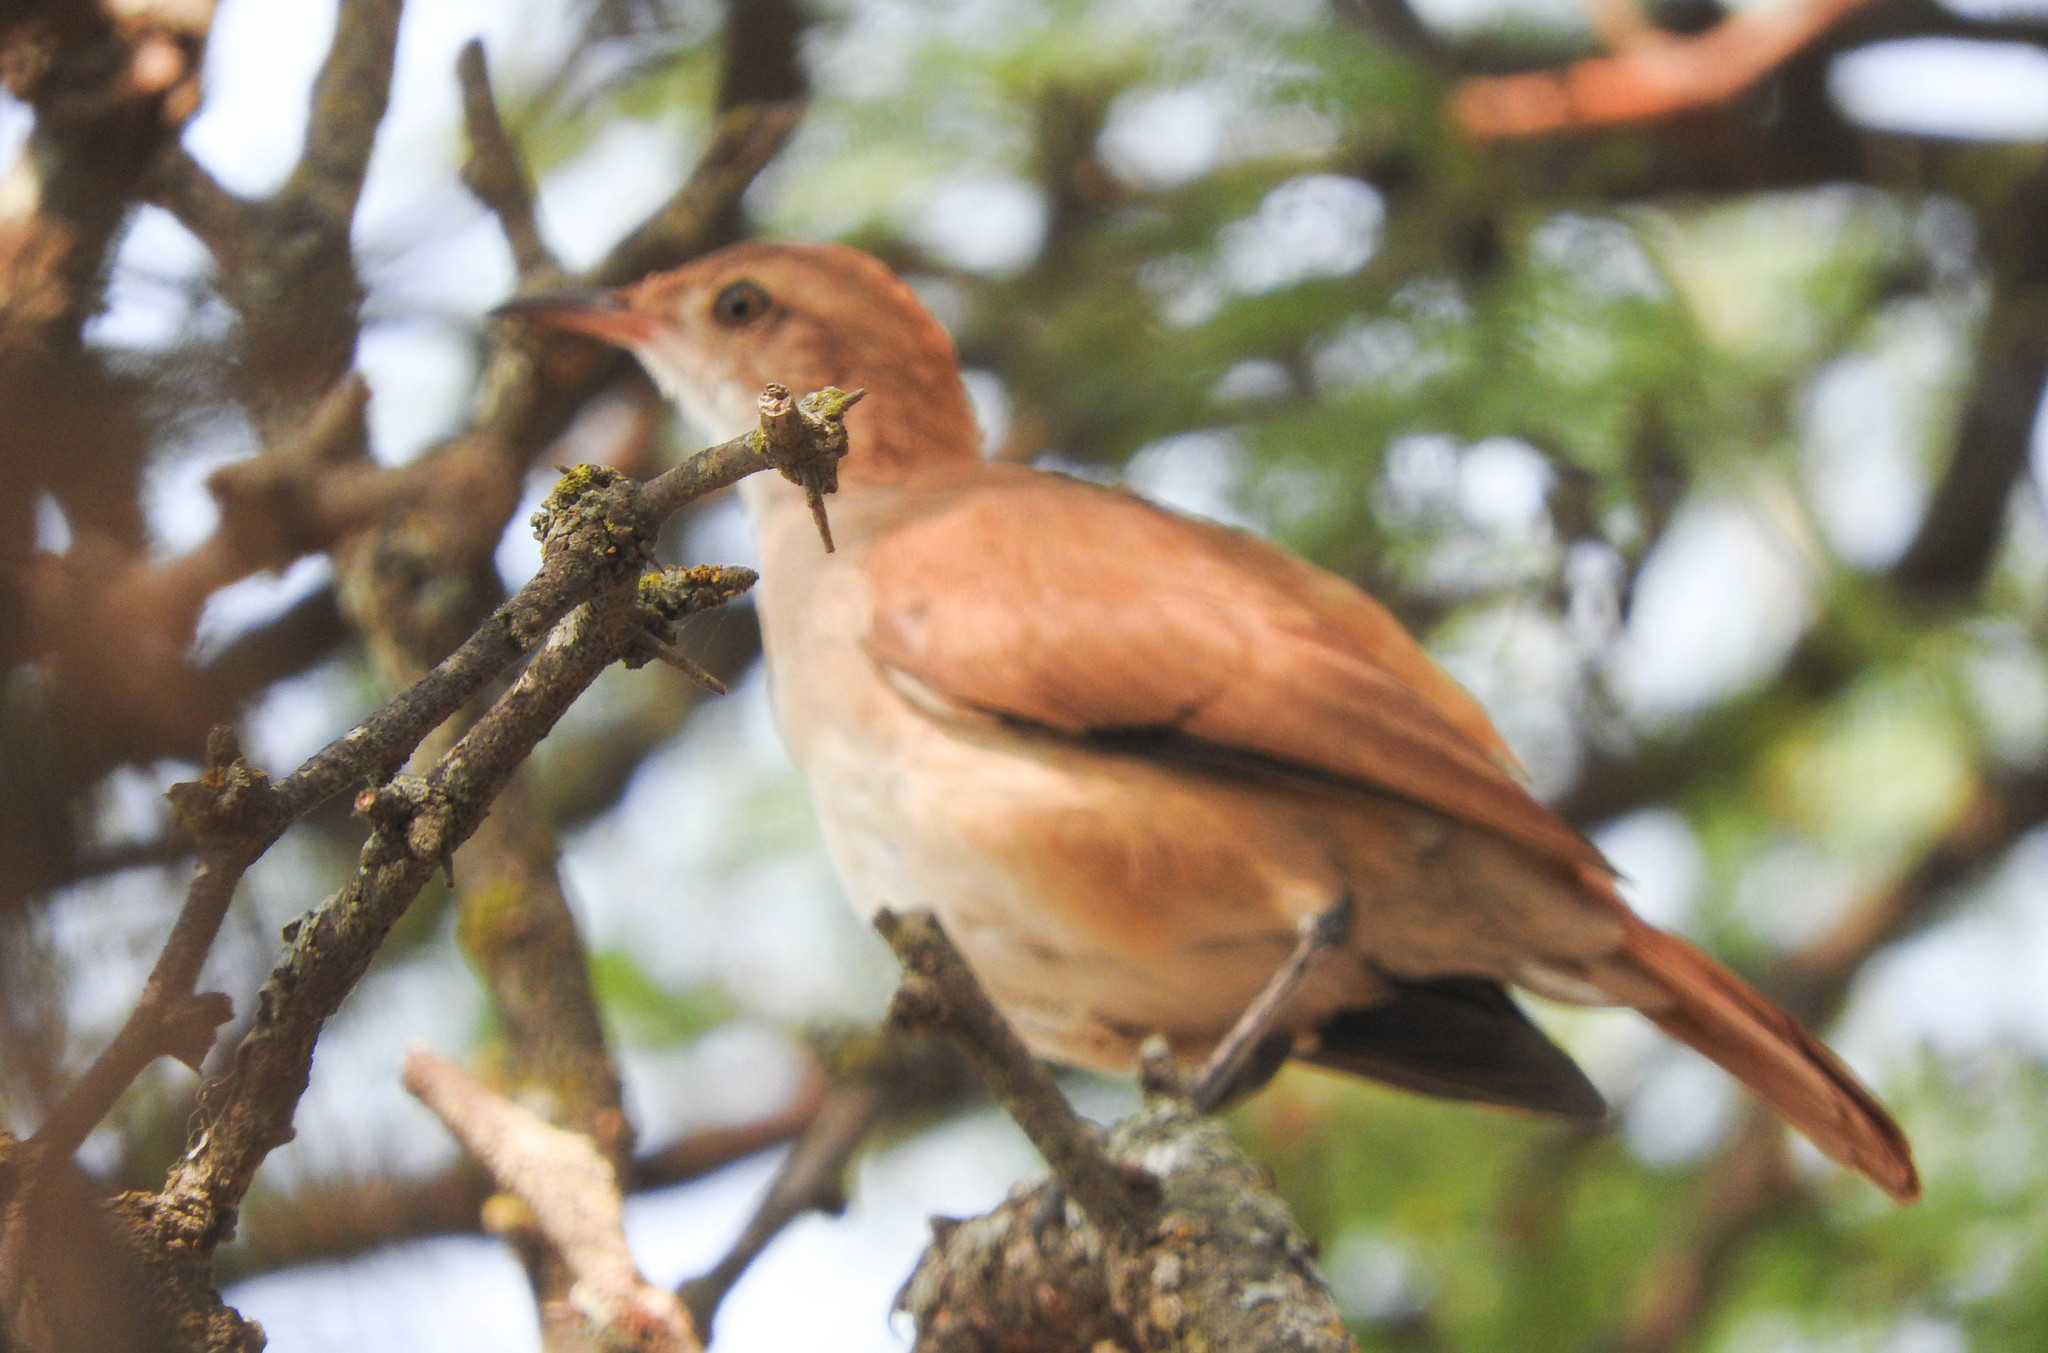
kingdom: Animalia
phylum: Chordata
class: Aves
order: Passeriformes
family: Furnariidae
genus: Furnarius
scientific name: Furnarius rufus
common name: Rufous hornero
